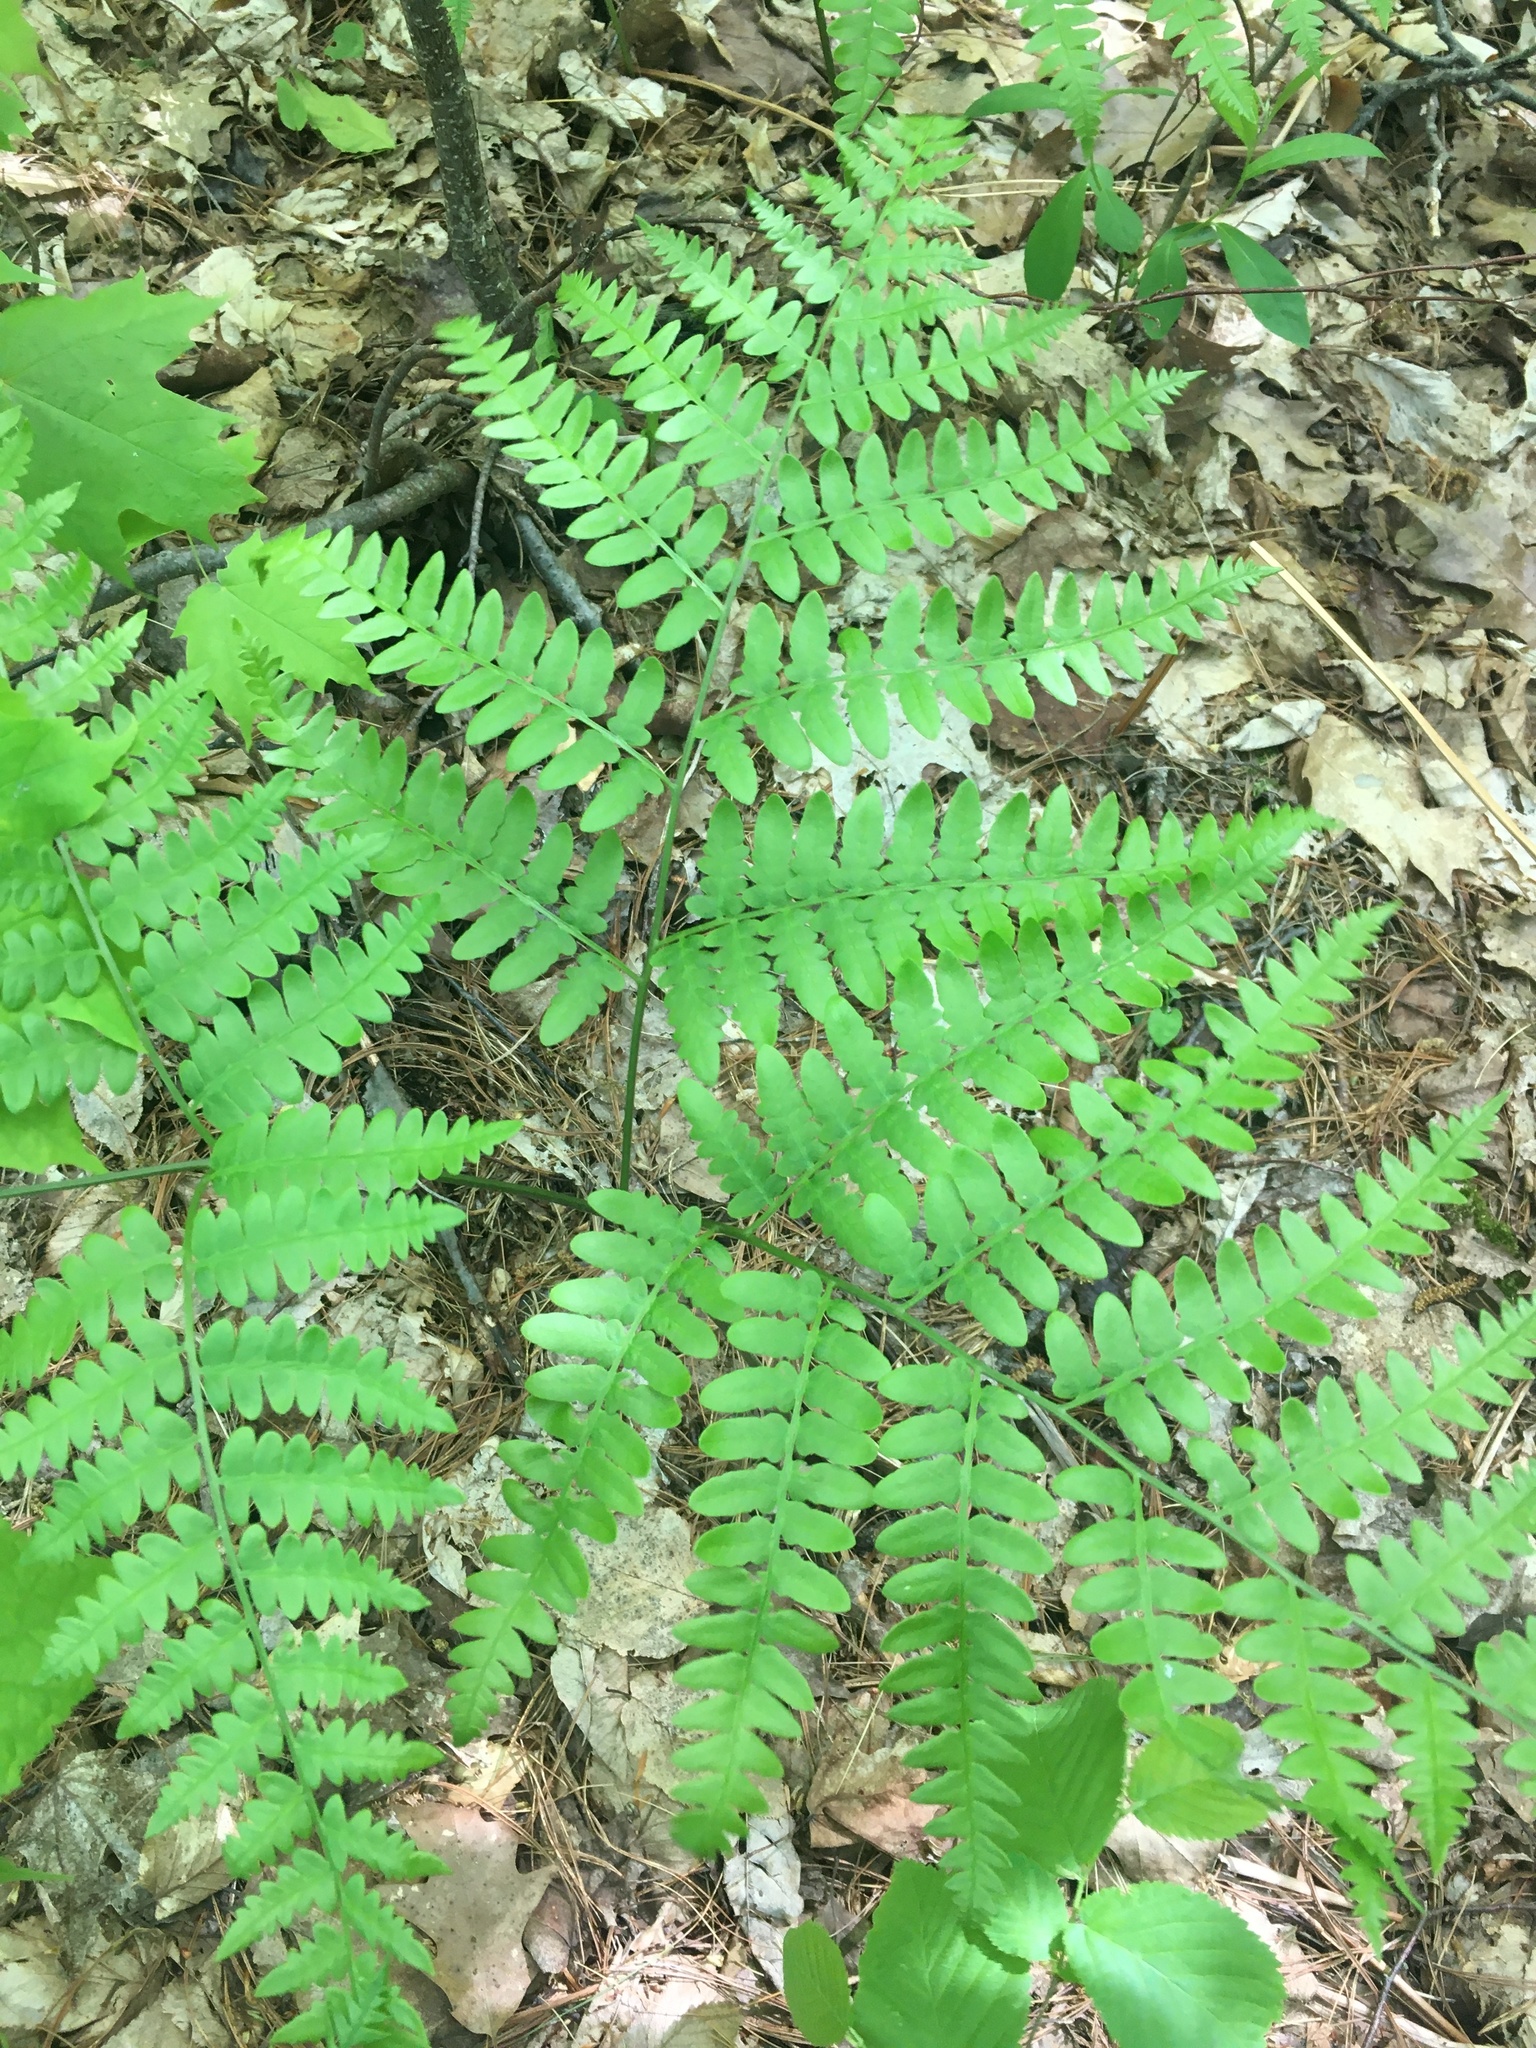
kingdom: Plantae
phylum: Tracheophyta
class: Polypodiopsida
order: Polypodiales
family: Dennstaedtiaceae
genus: Pteridium
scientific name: Pteridium aquilinum
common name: Bracken
